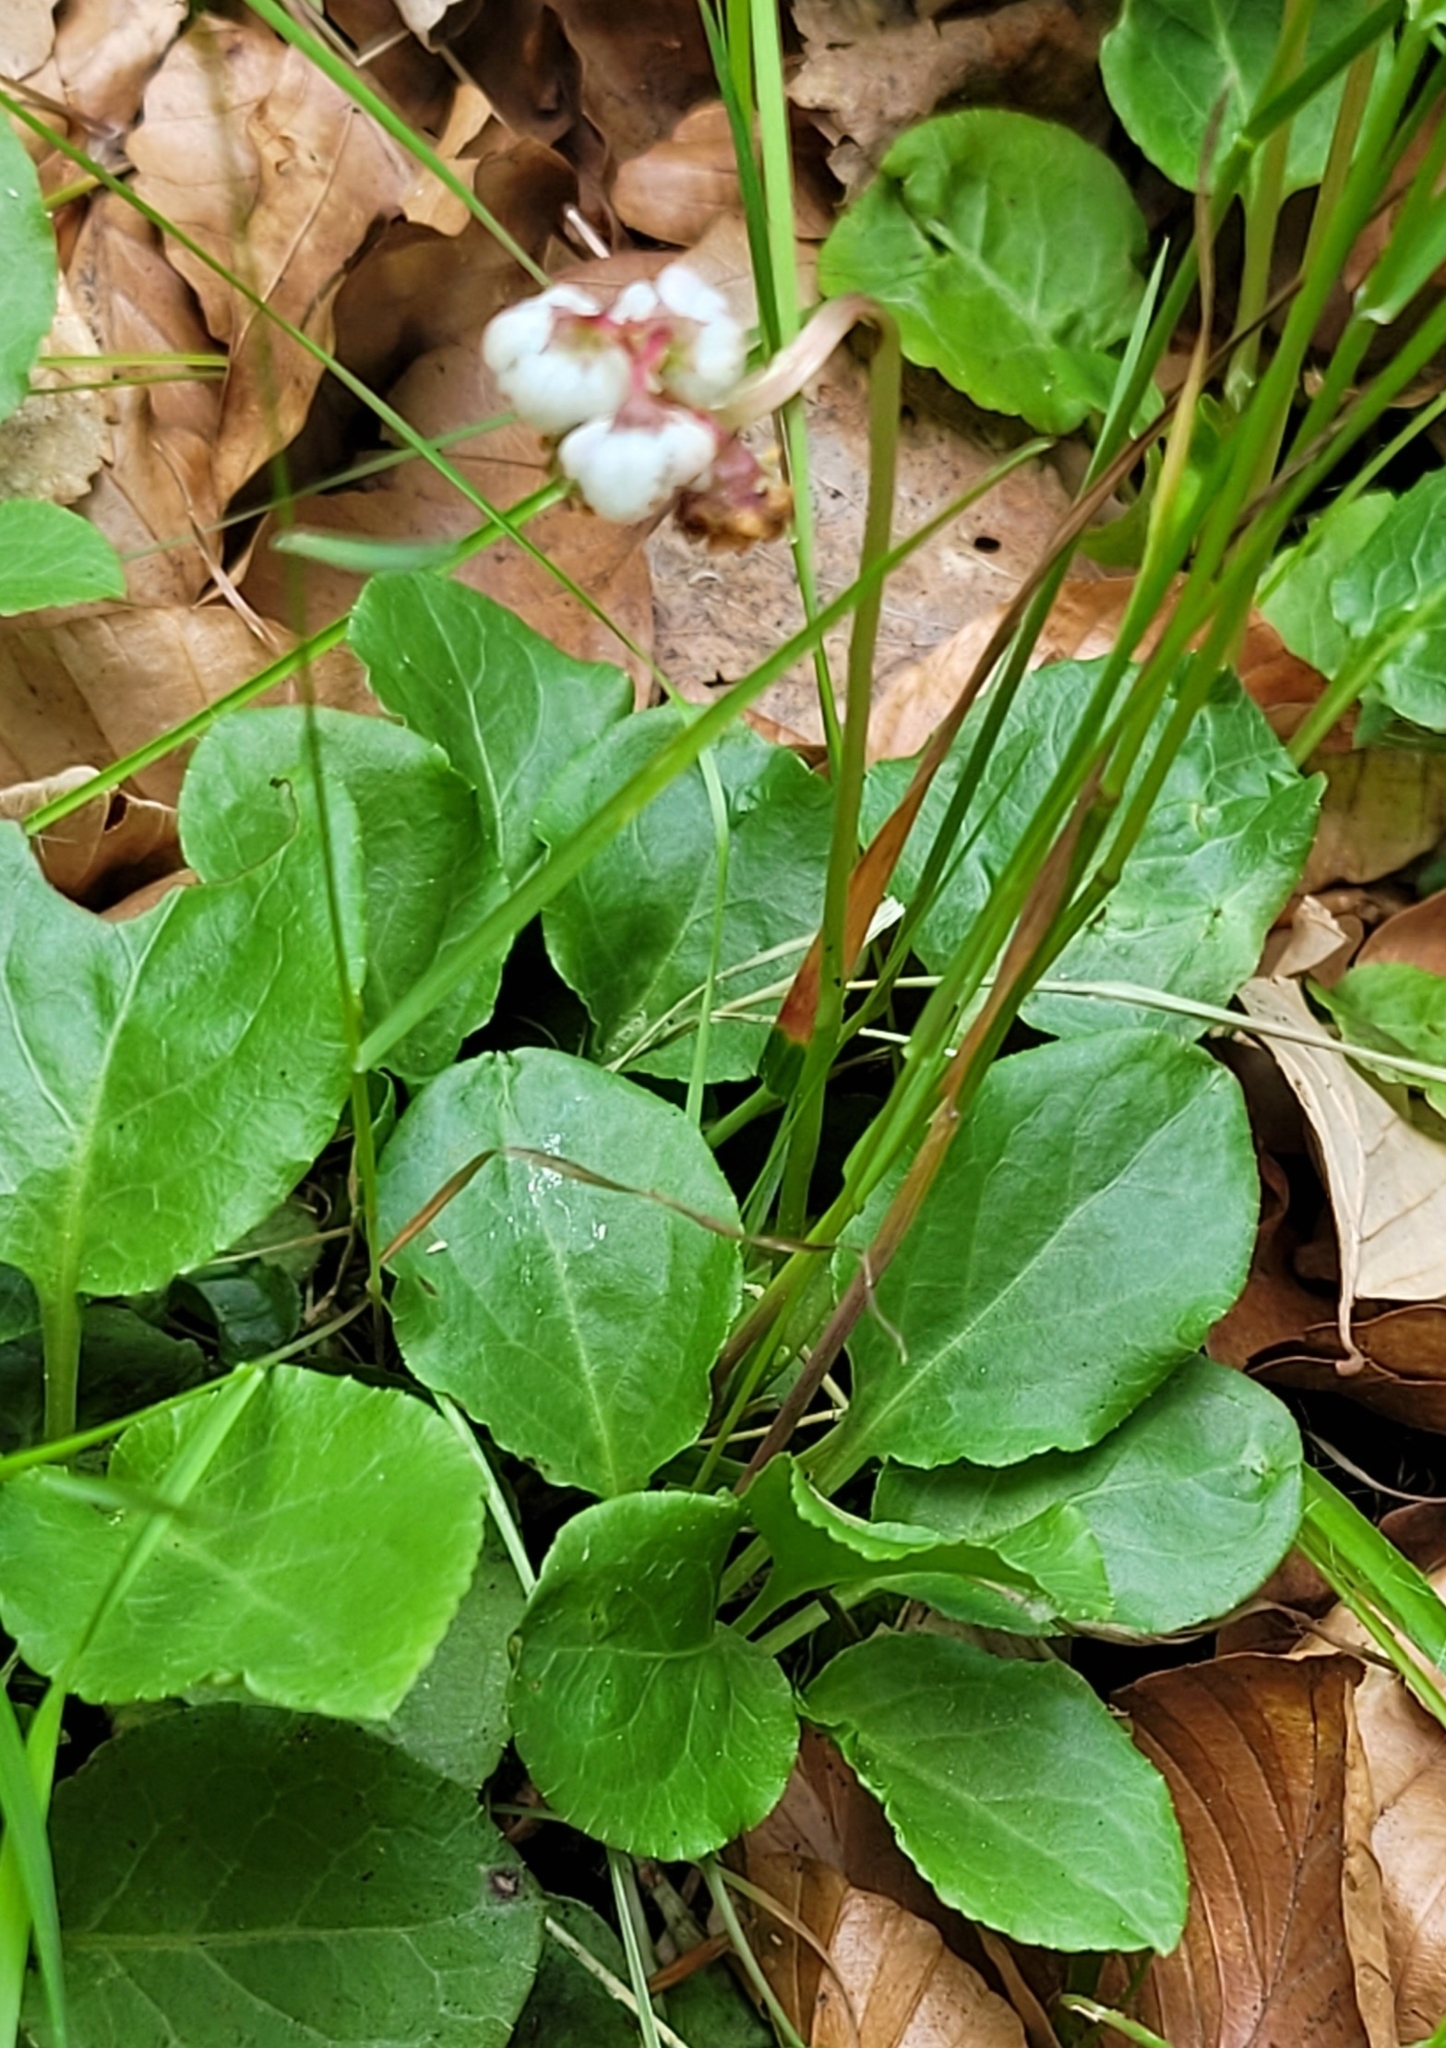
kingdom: Plantae
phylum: Tracheophyta
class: Magnoliopsida
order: Ericales
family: Ericaceae
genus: Pyrola
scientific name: Pyrola minor
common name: Common wintergreen
